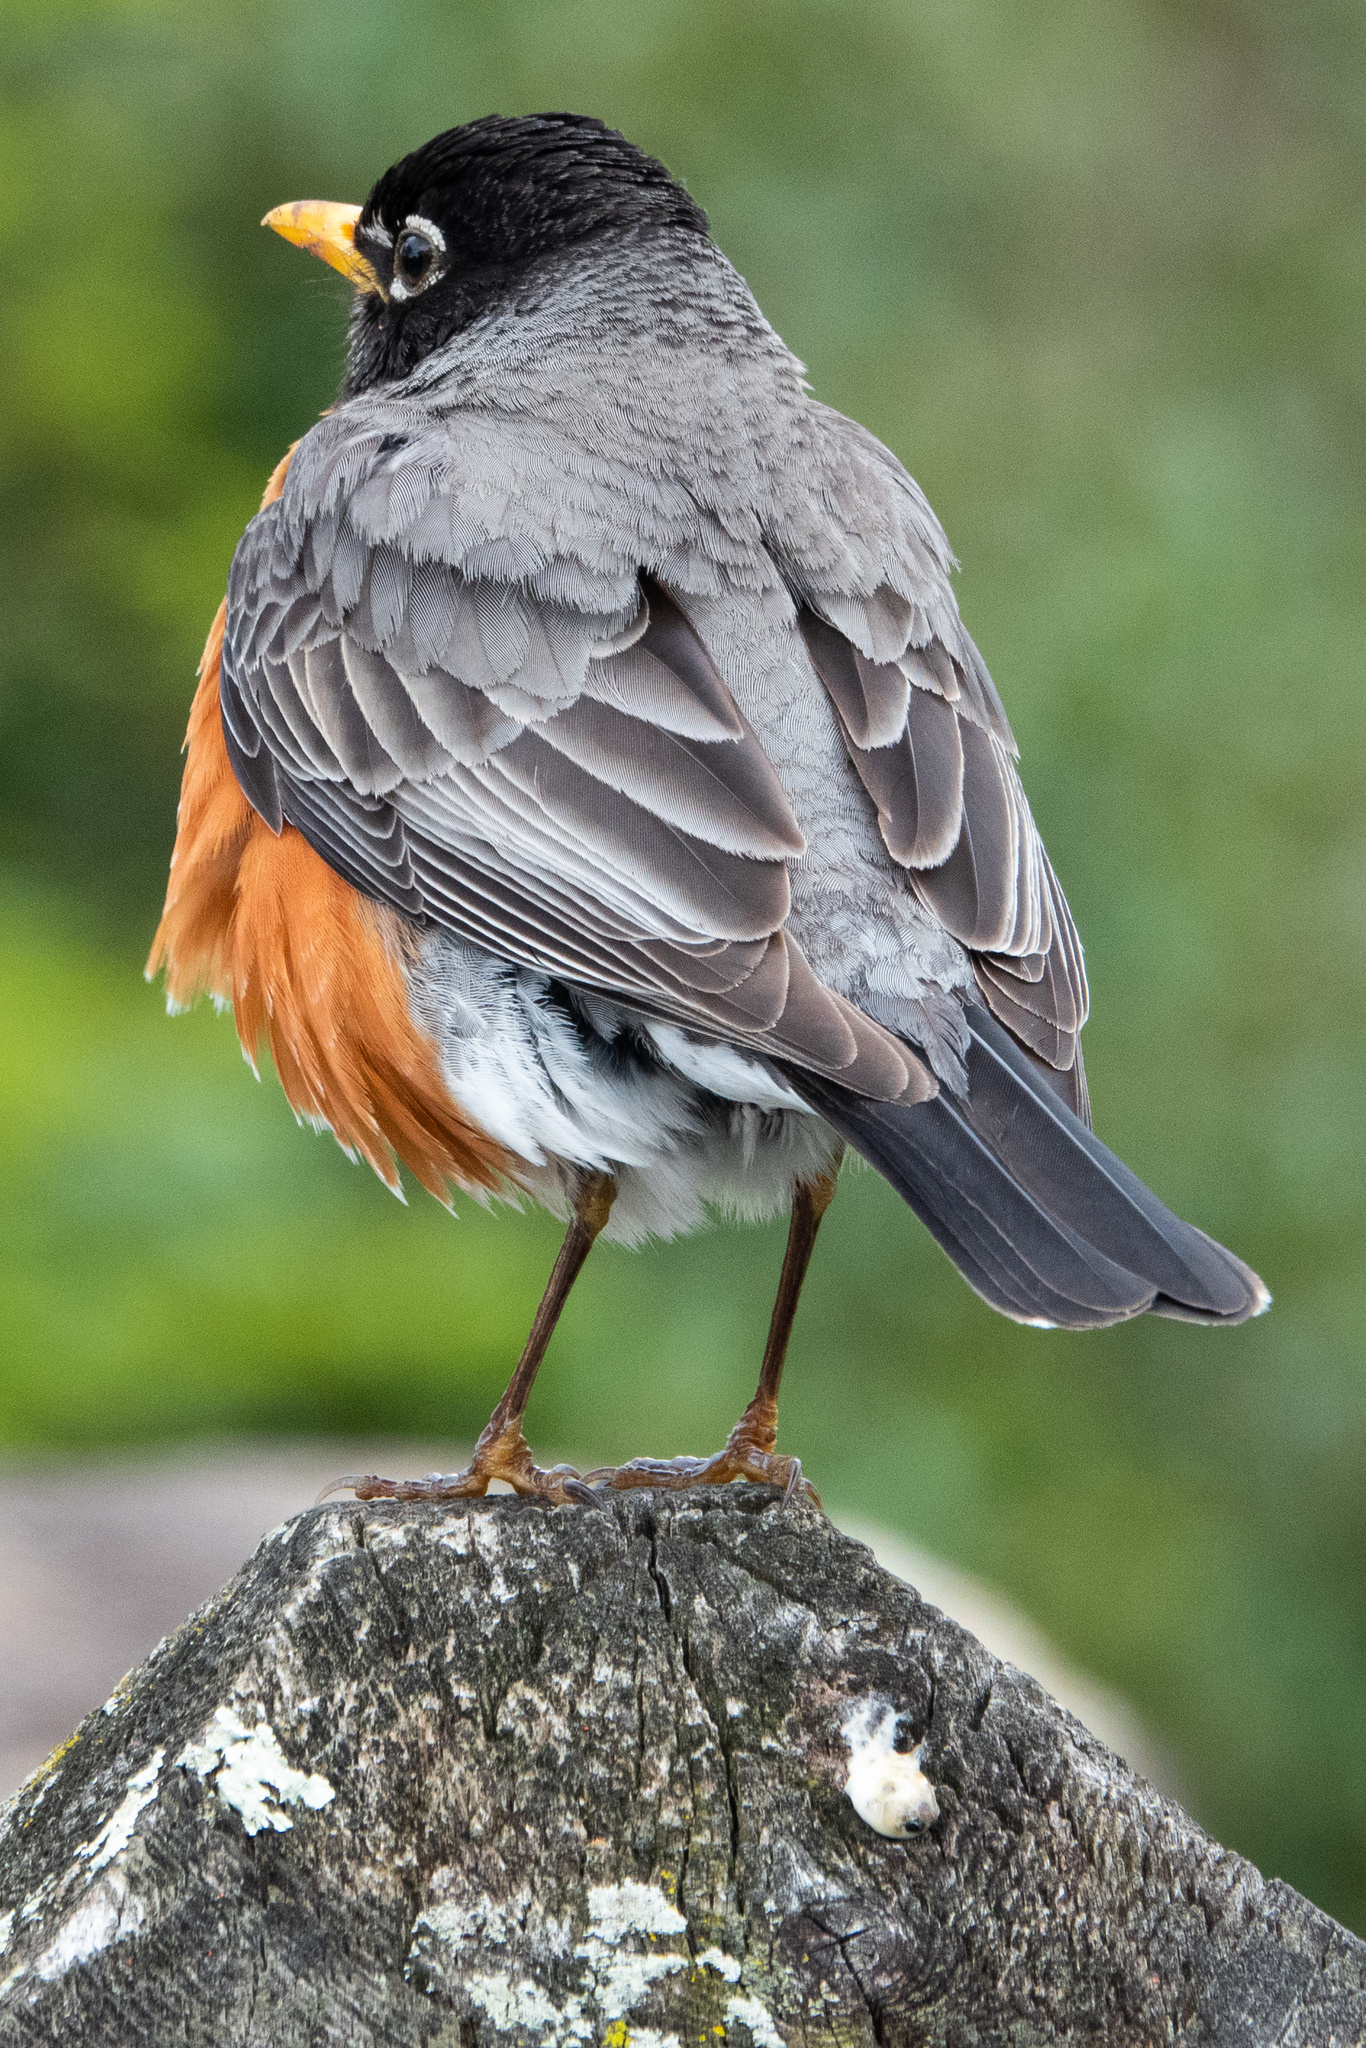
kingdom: Animalia
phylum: Chordata
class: Aves
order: Passeriformes
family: Turdidae
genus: Turdus
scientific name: Turdus migratorius
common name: American robin
